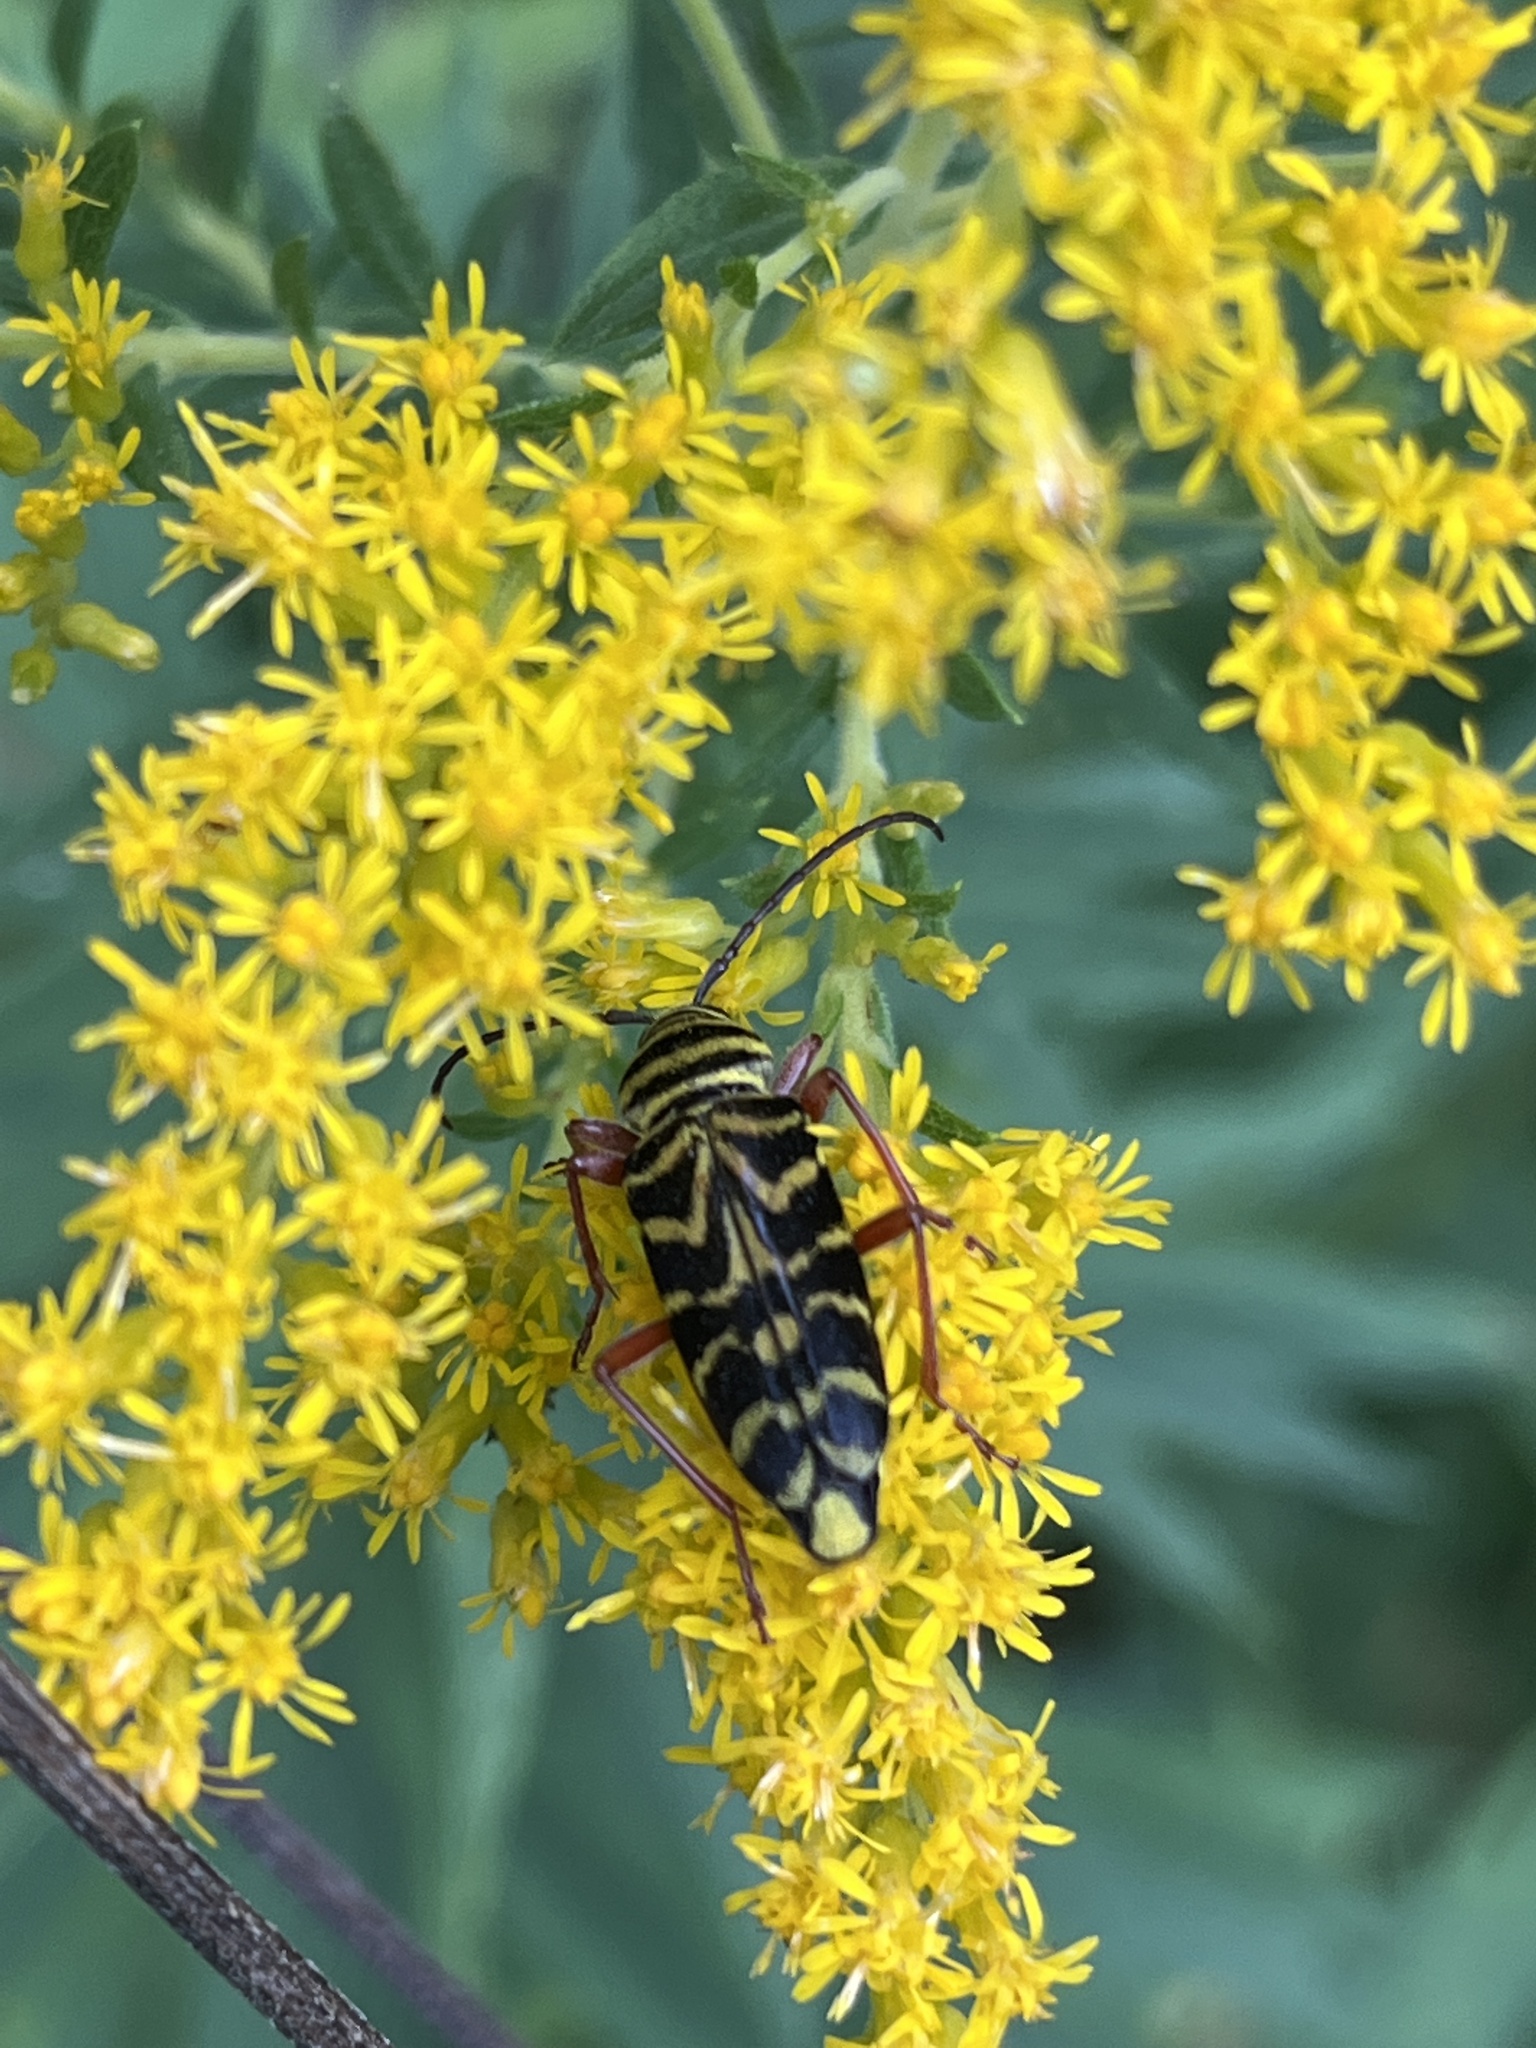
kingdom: Animalia
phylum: Arthropoda
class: Insecta
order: Coleoptera
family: Cerambycidae
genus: Megacyllene
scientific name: Megacyllene robiniae
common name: Locust borer
